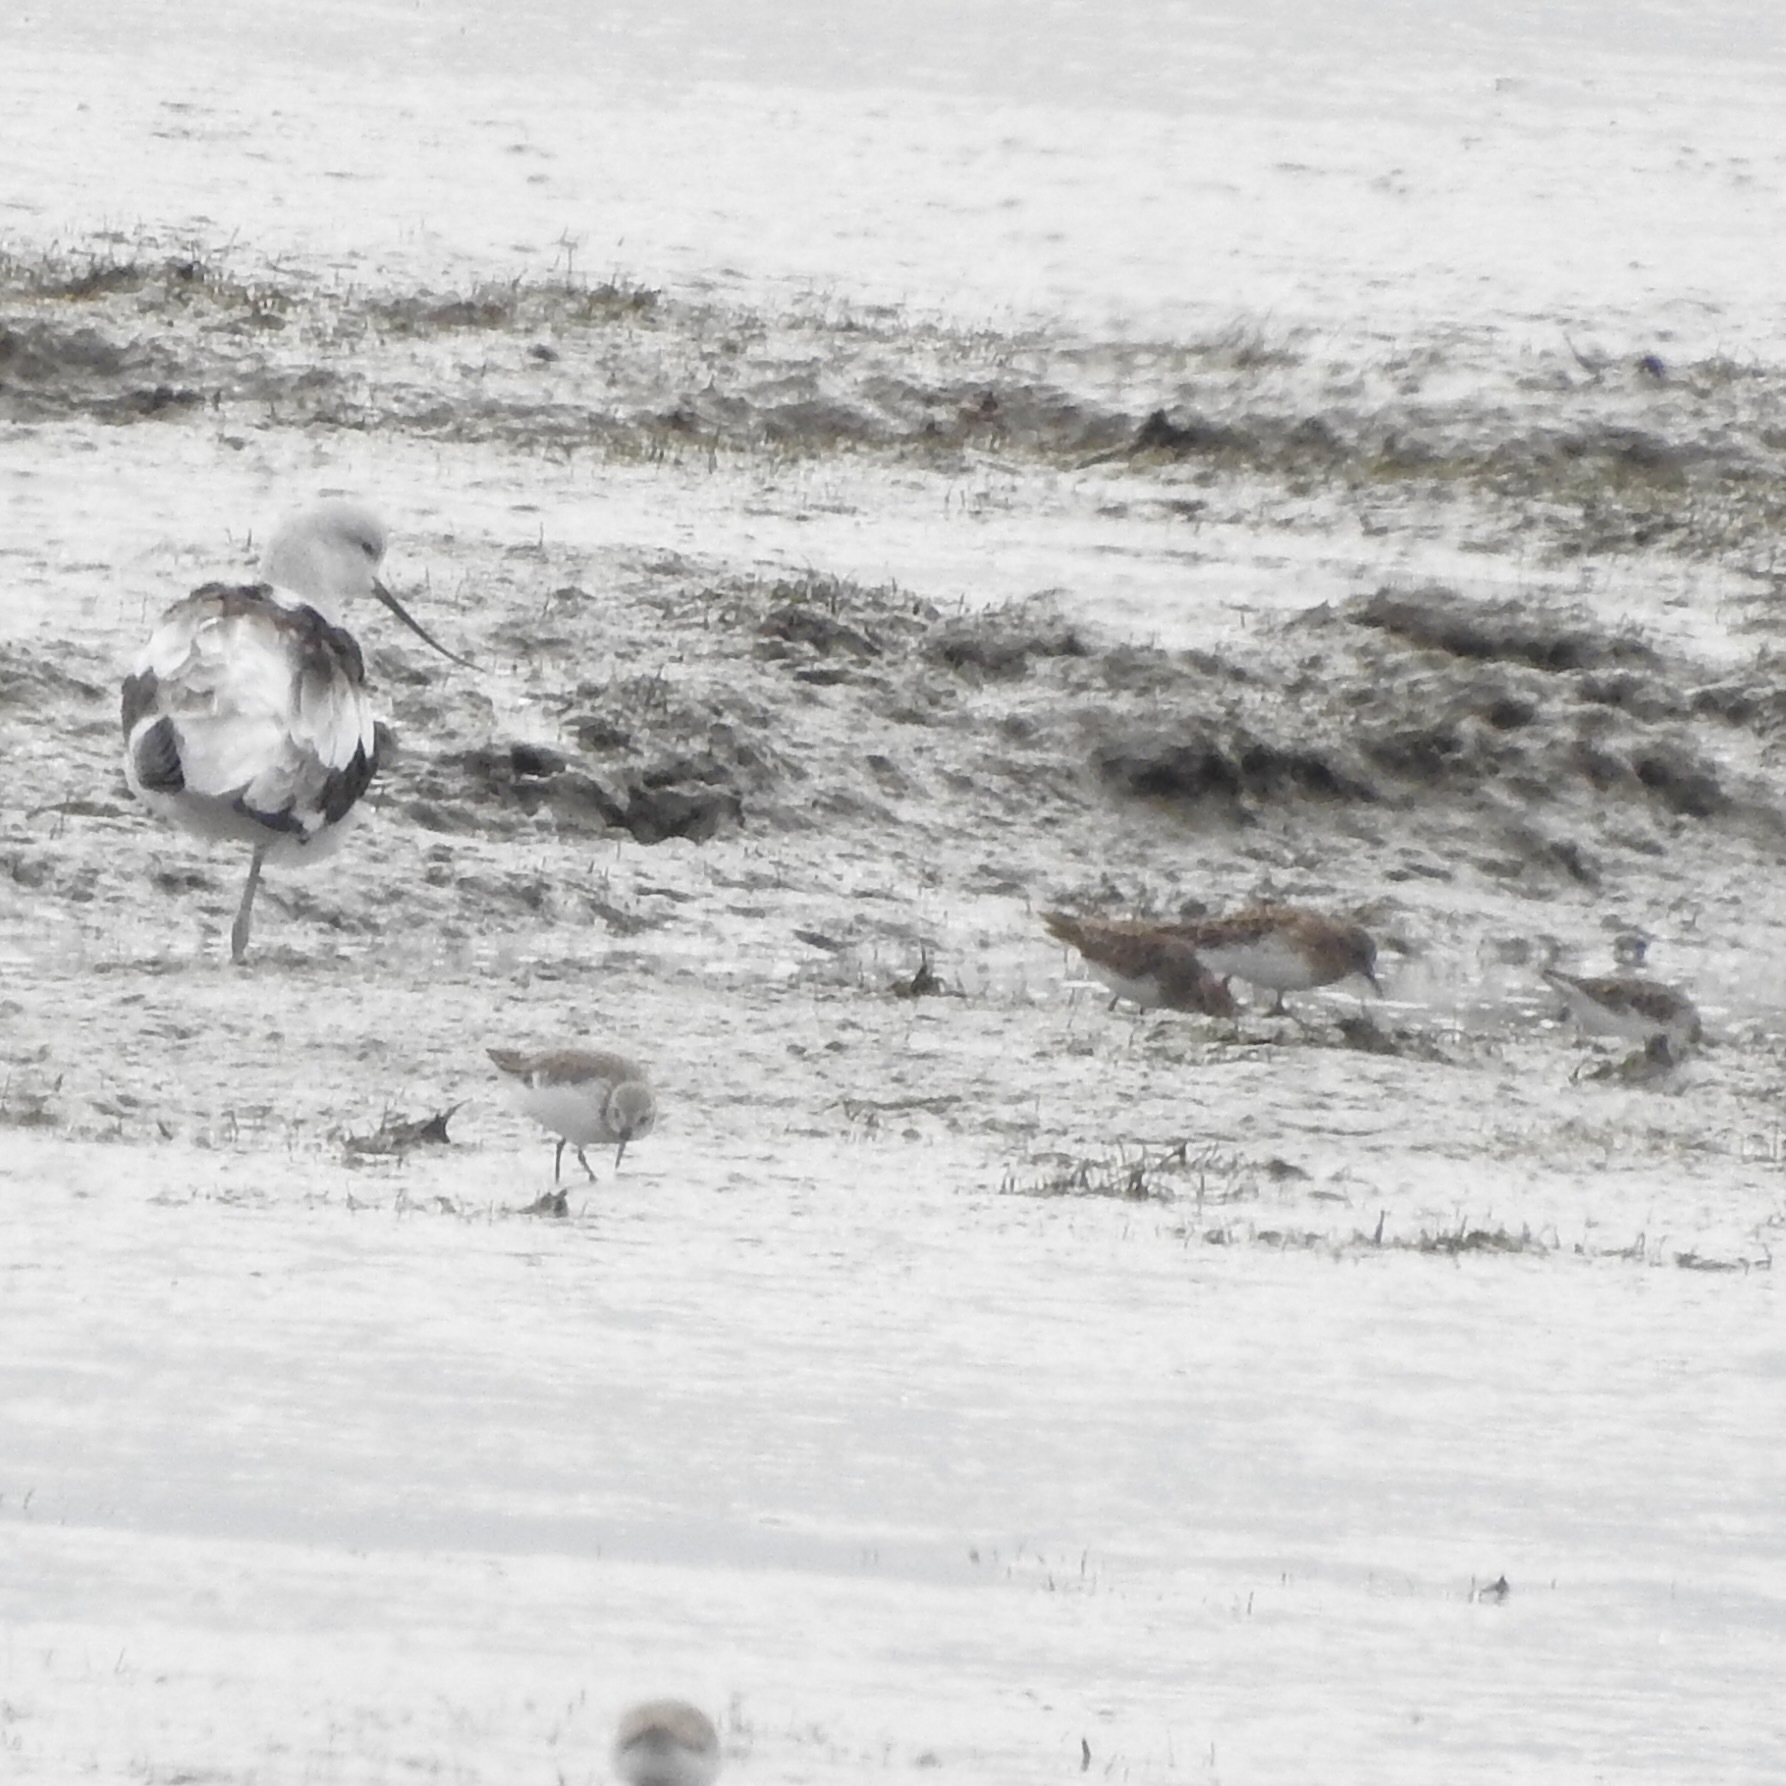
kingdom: Animalia
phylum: Chordata
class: Aves
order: Charadriiformes
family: Recurvirostridae
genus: Recurvirostra
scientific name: Recurvirostra americana
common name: American avocet
